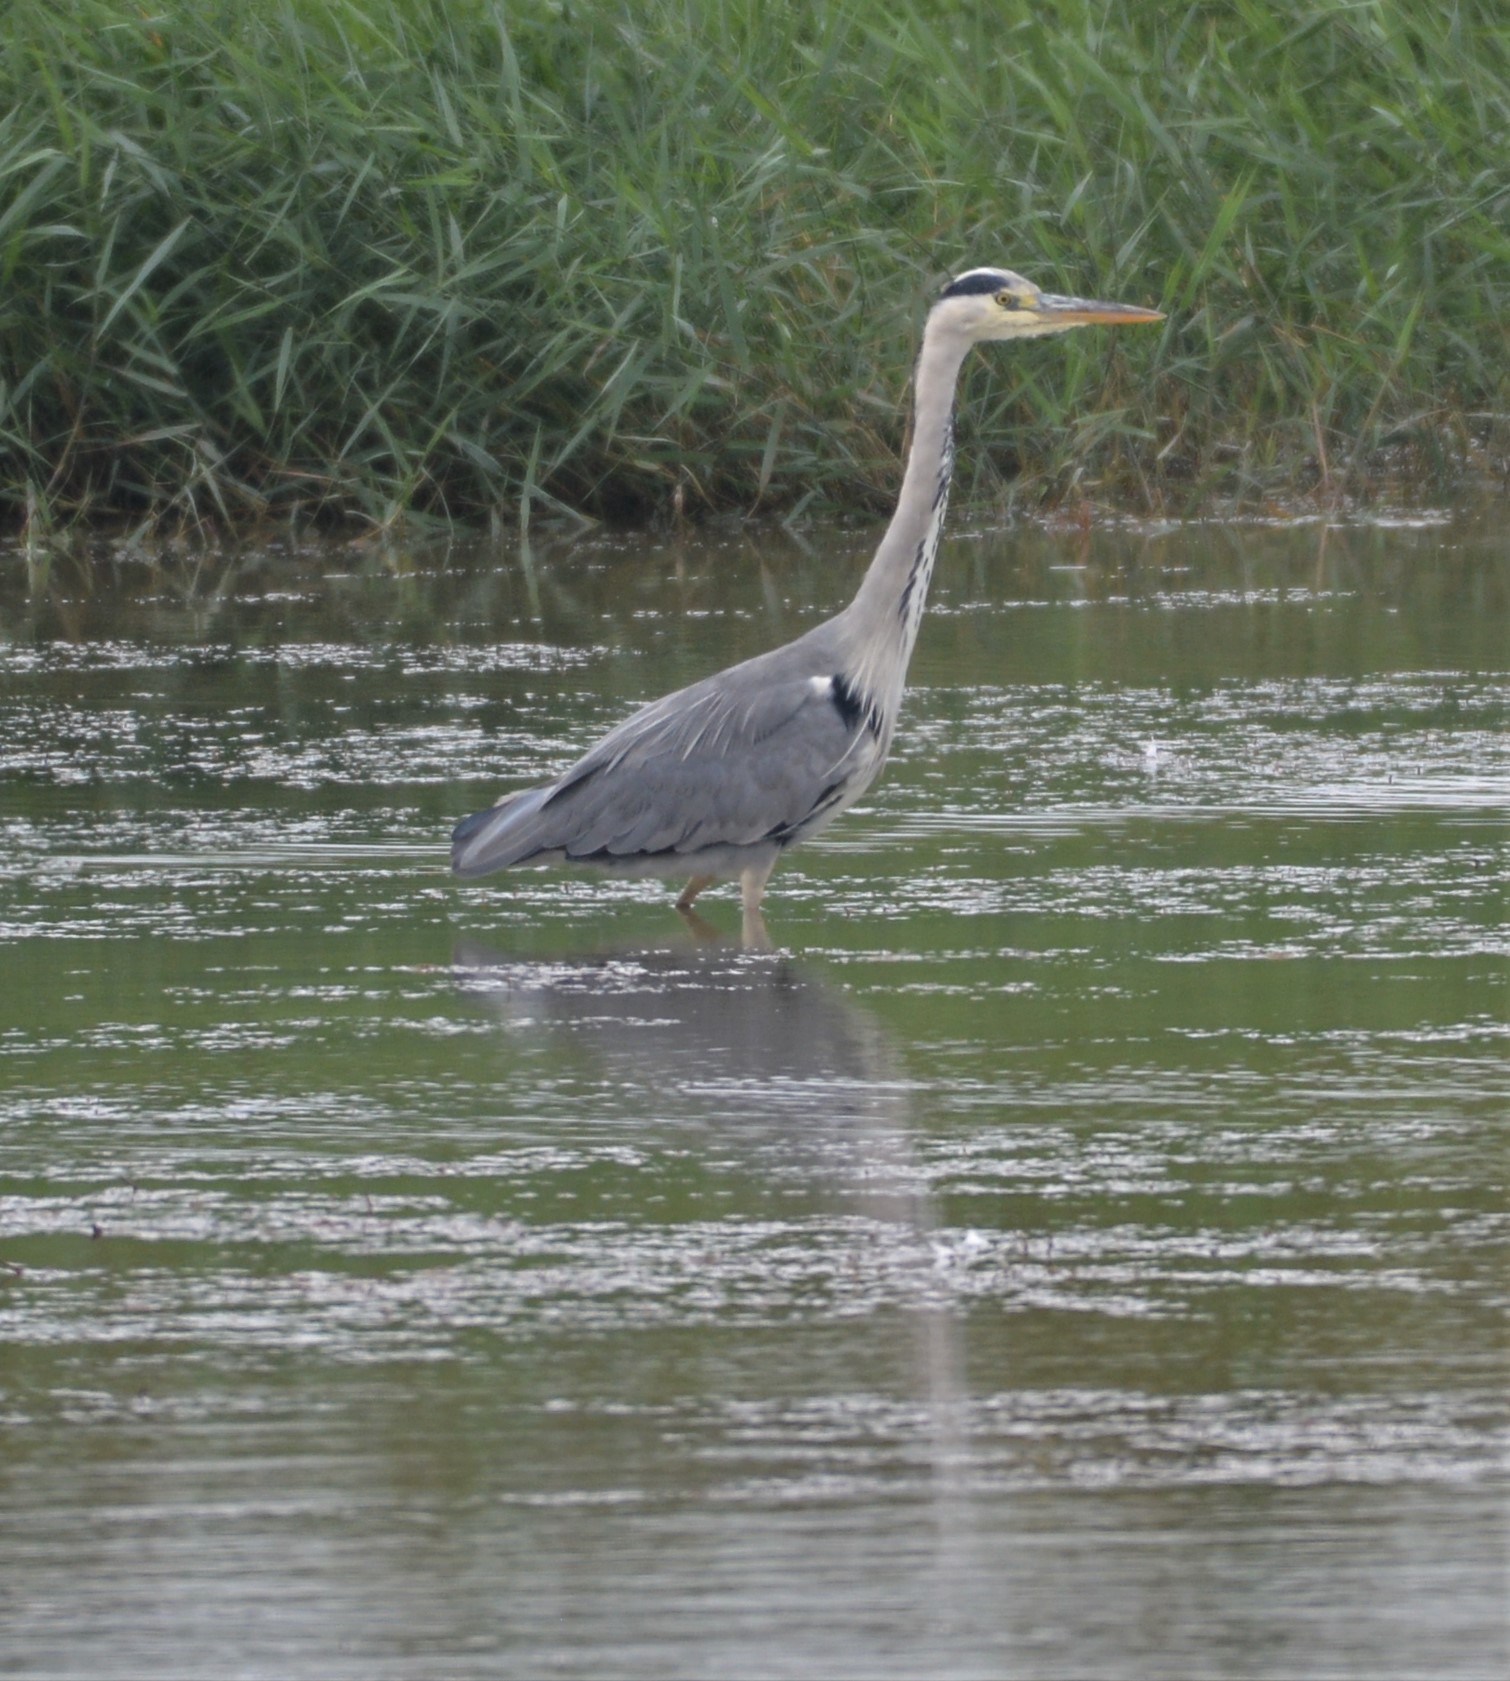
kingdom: Animalia
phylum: Chordata
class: Aves
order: Pelecaniformes
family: Ardeidae
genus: Ardea
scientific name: Ardea cinerea
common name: Grey heron
